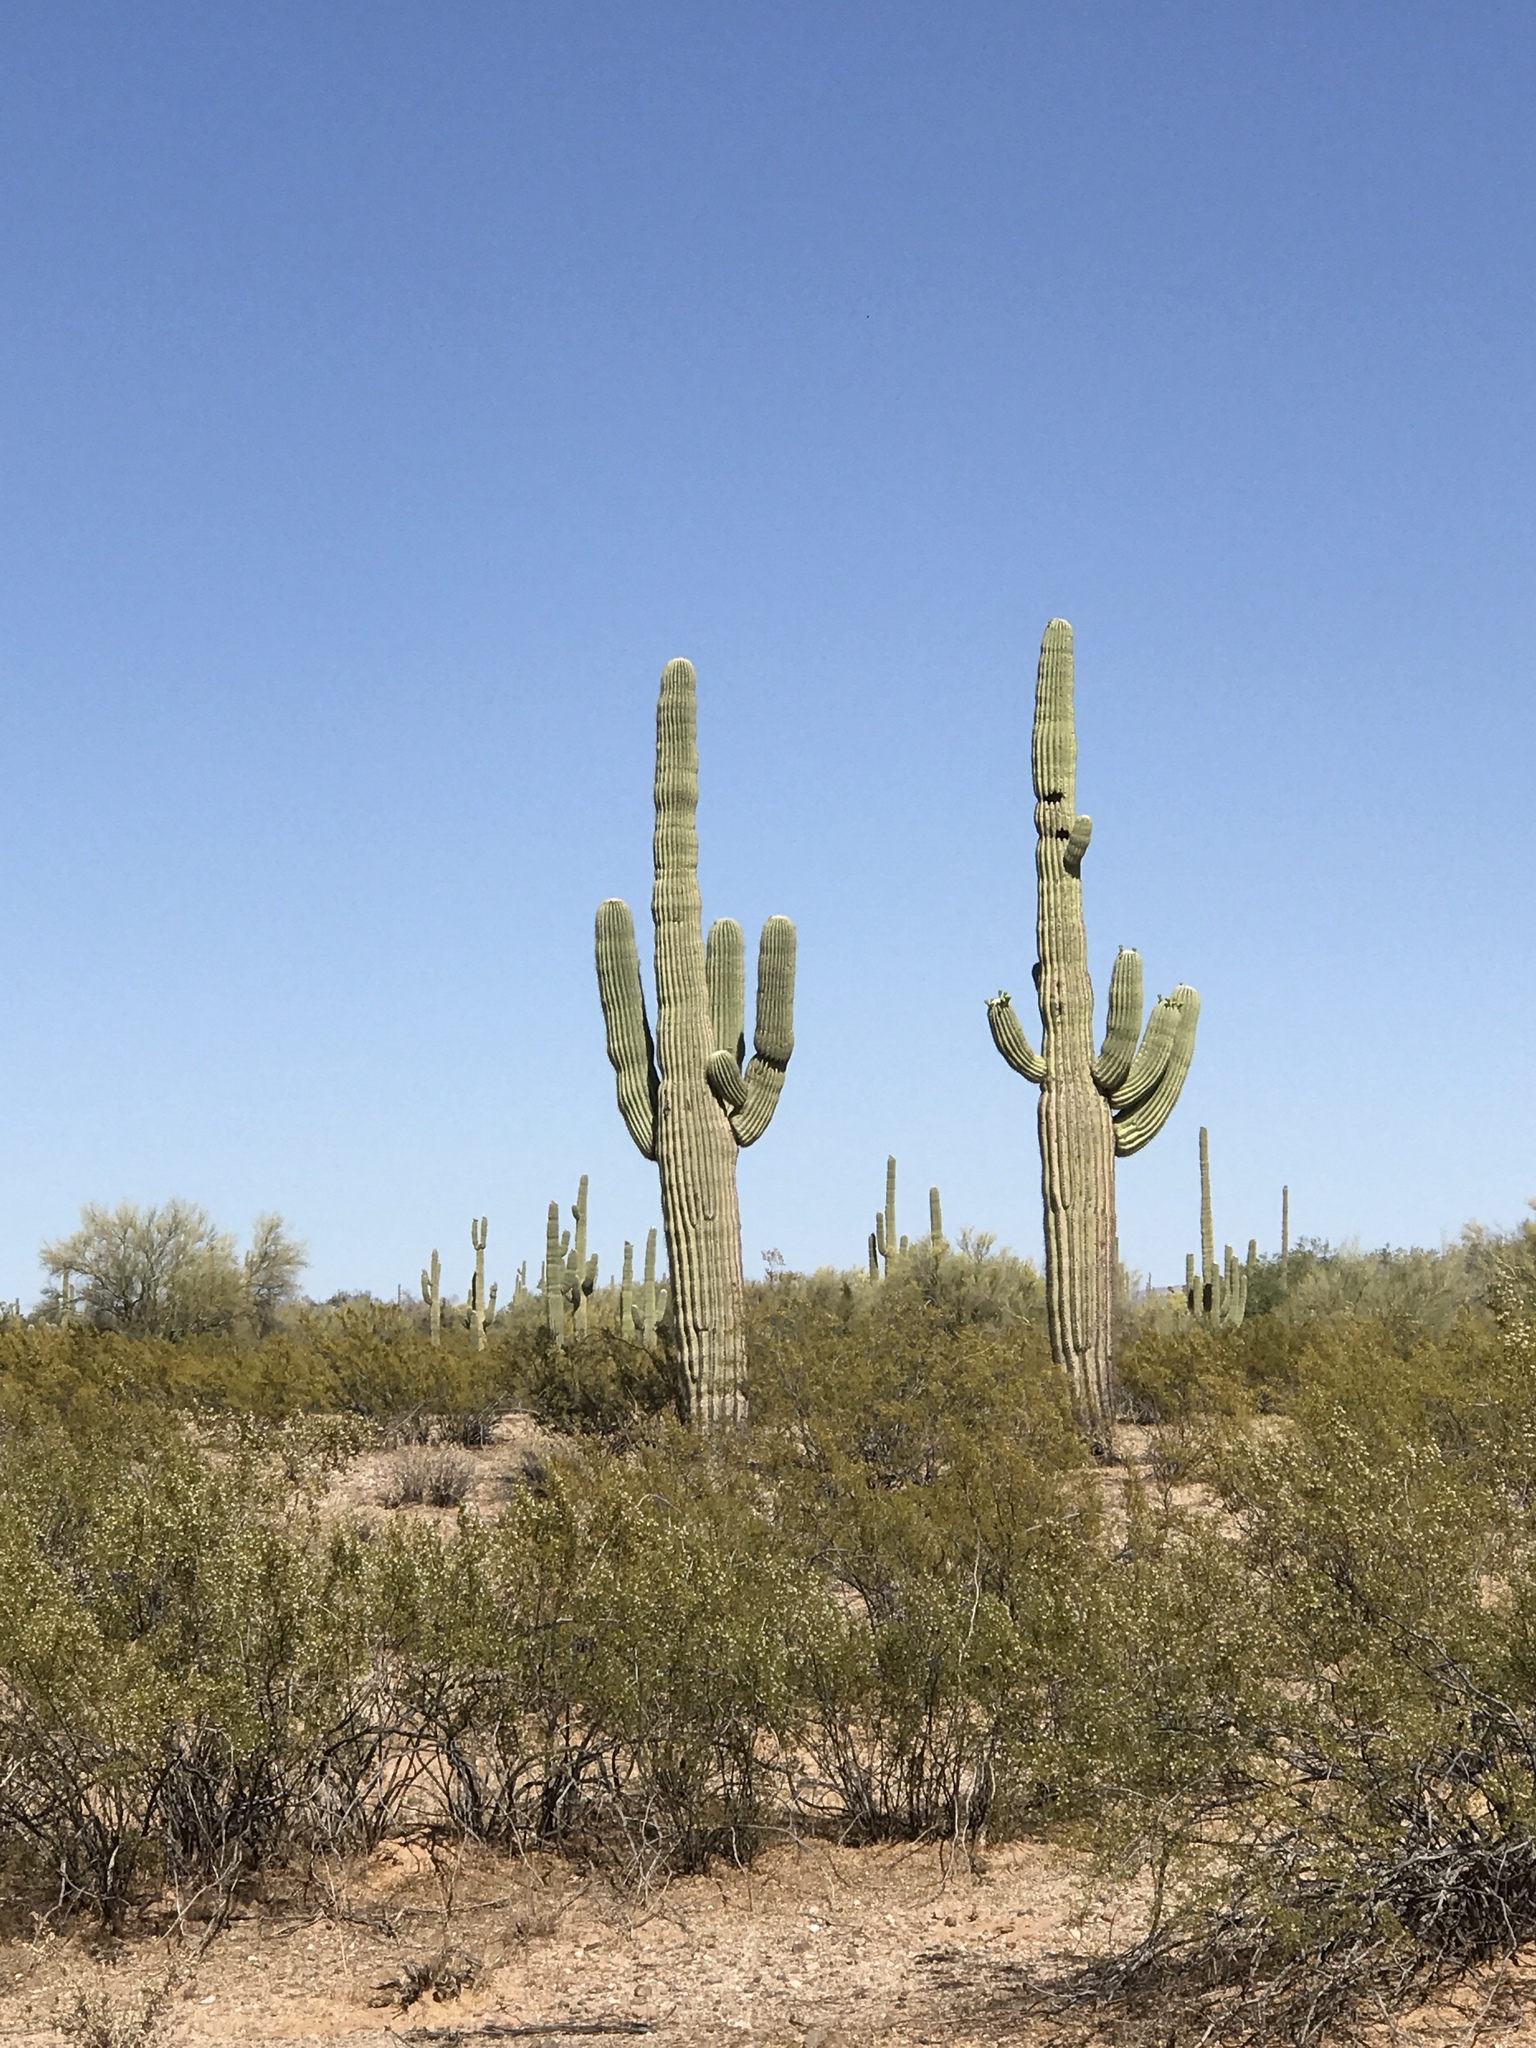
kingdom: Plantae
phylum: Tracheophyta
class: Magnoliopsida
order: Caryophyllales
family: Cactaceae
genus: Carnegiea
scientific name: Carnegiea gigantea
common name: Saguaro
